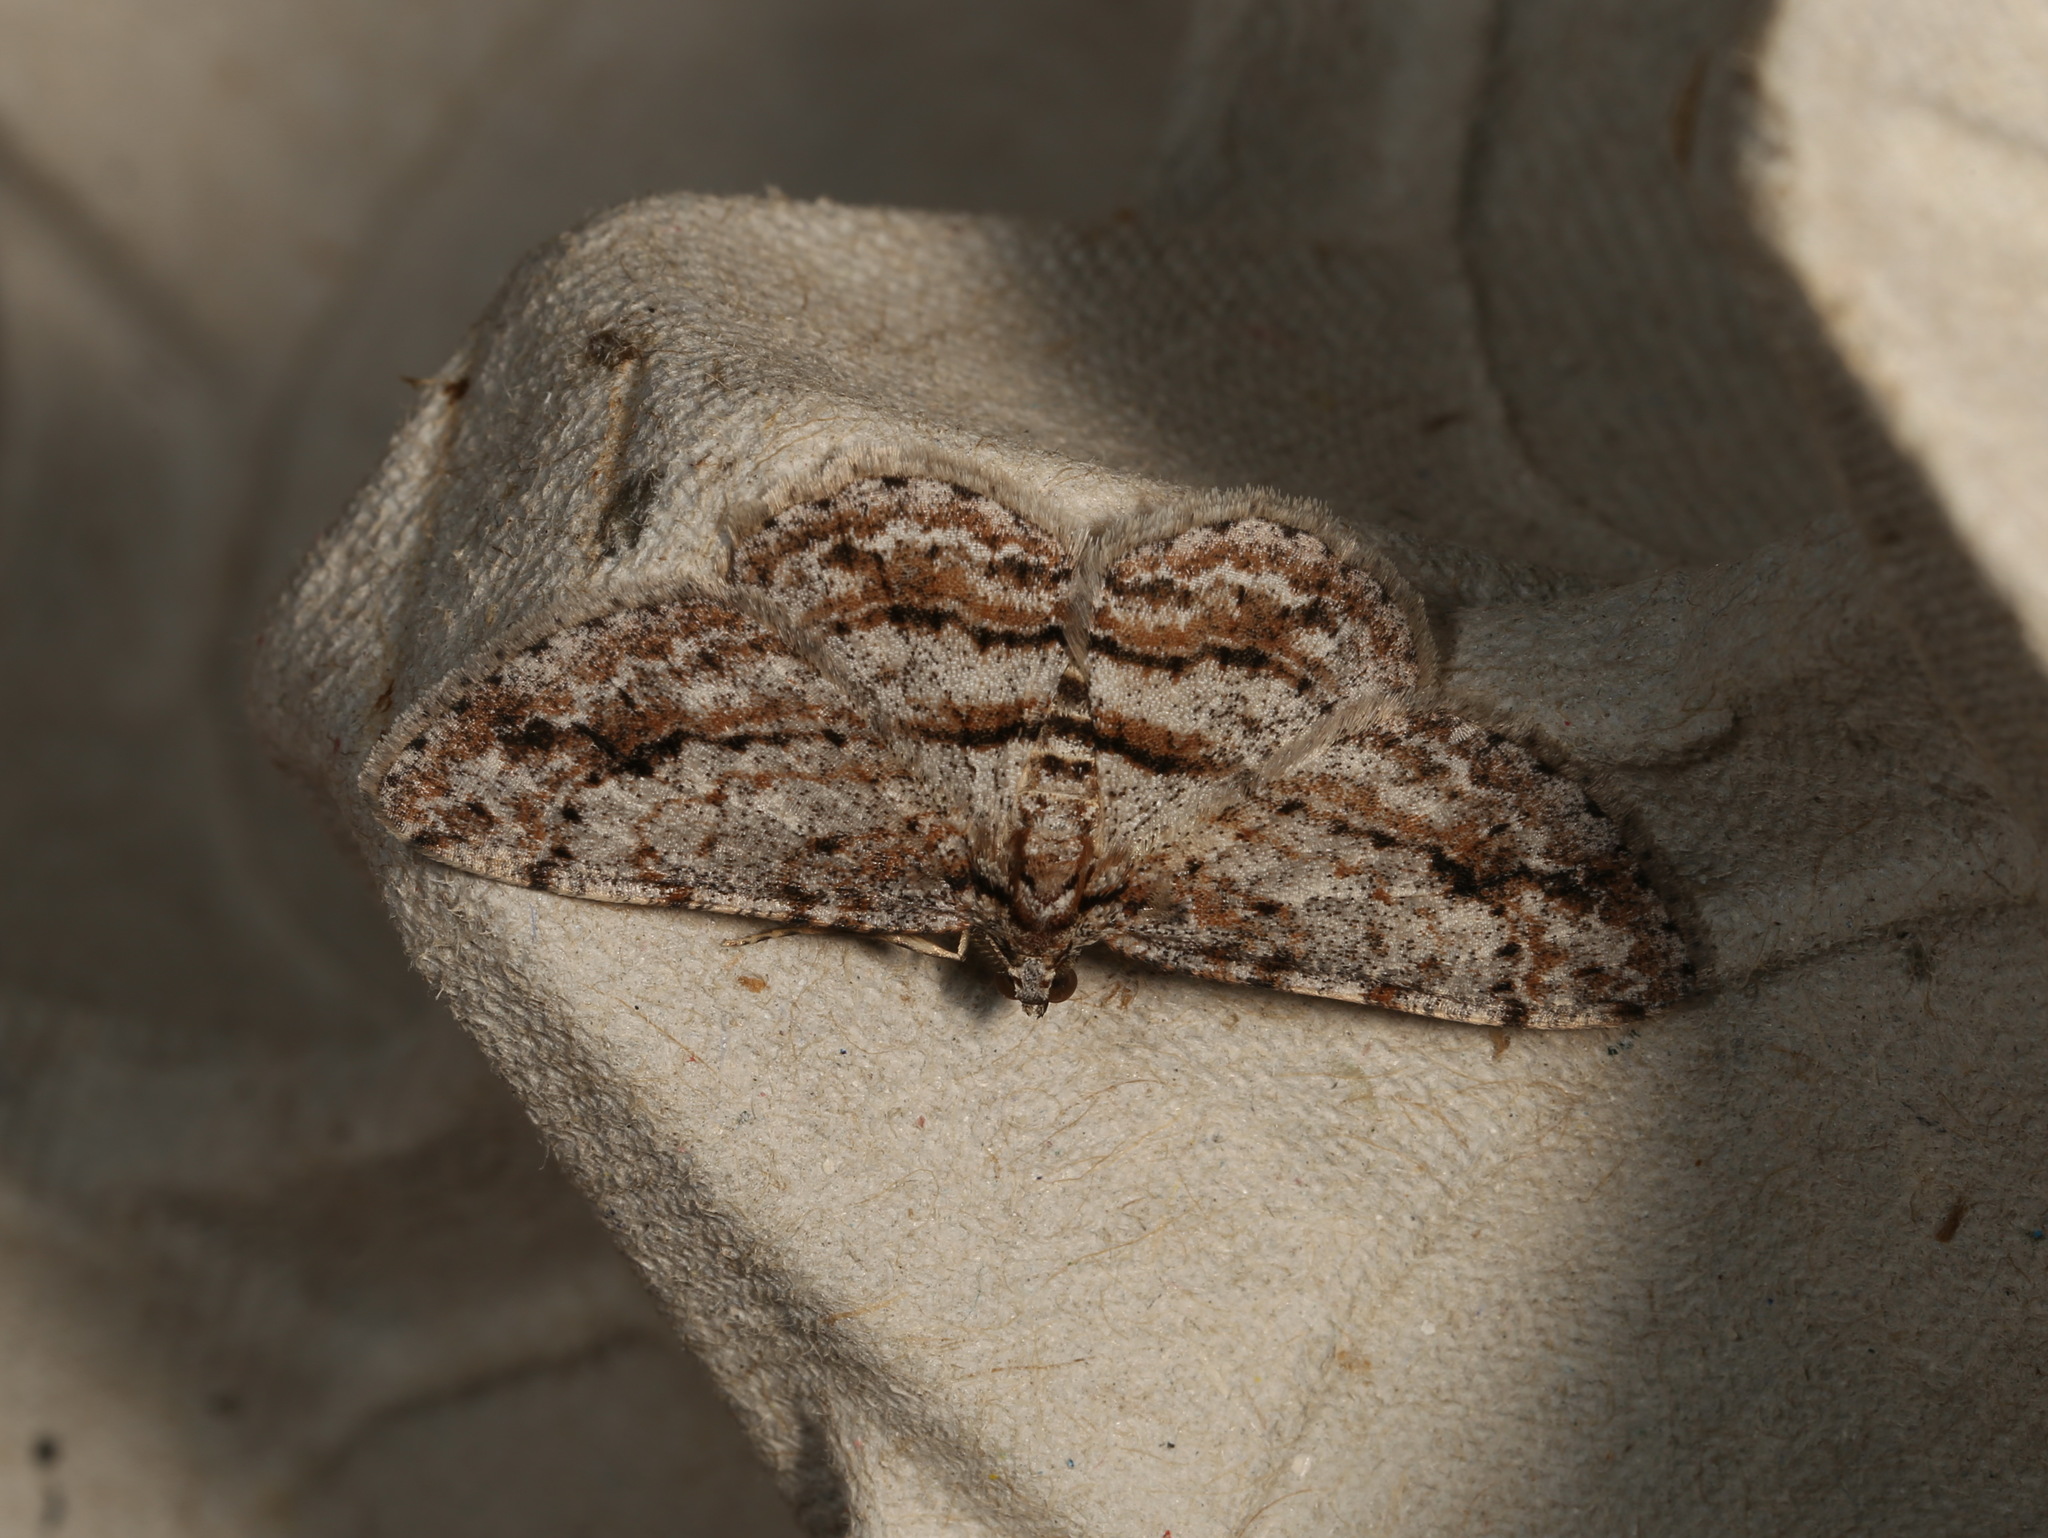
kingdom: Animalia
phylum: Arthropoda
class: Insecta
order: Lepidoptera
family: Geometridae
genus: Didymoctenia
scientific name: Didymoctenia exsuperata
